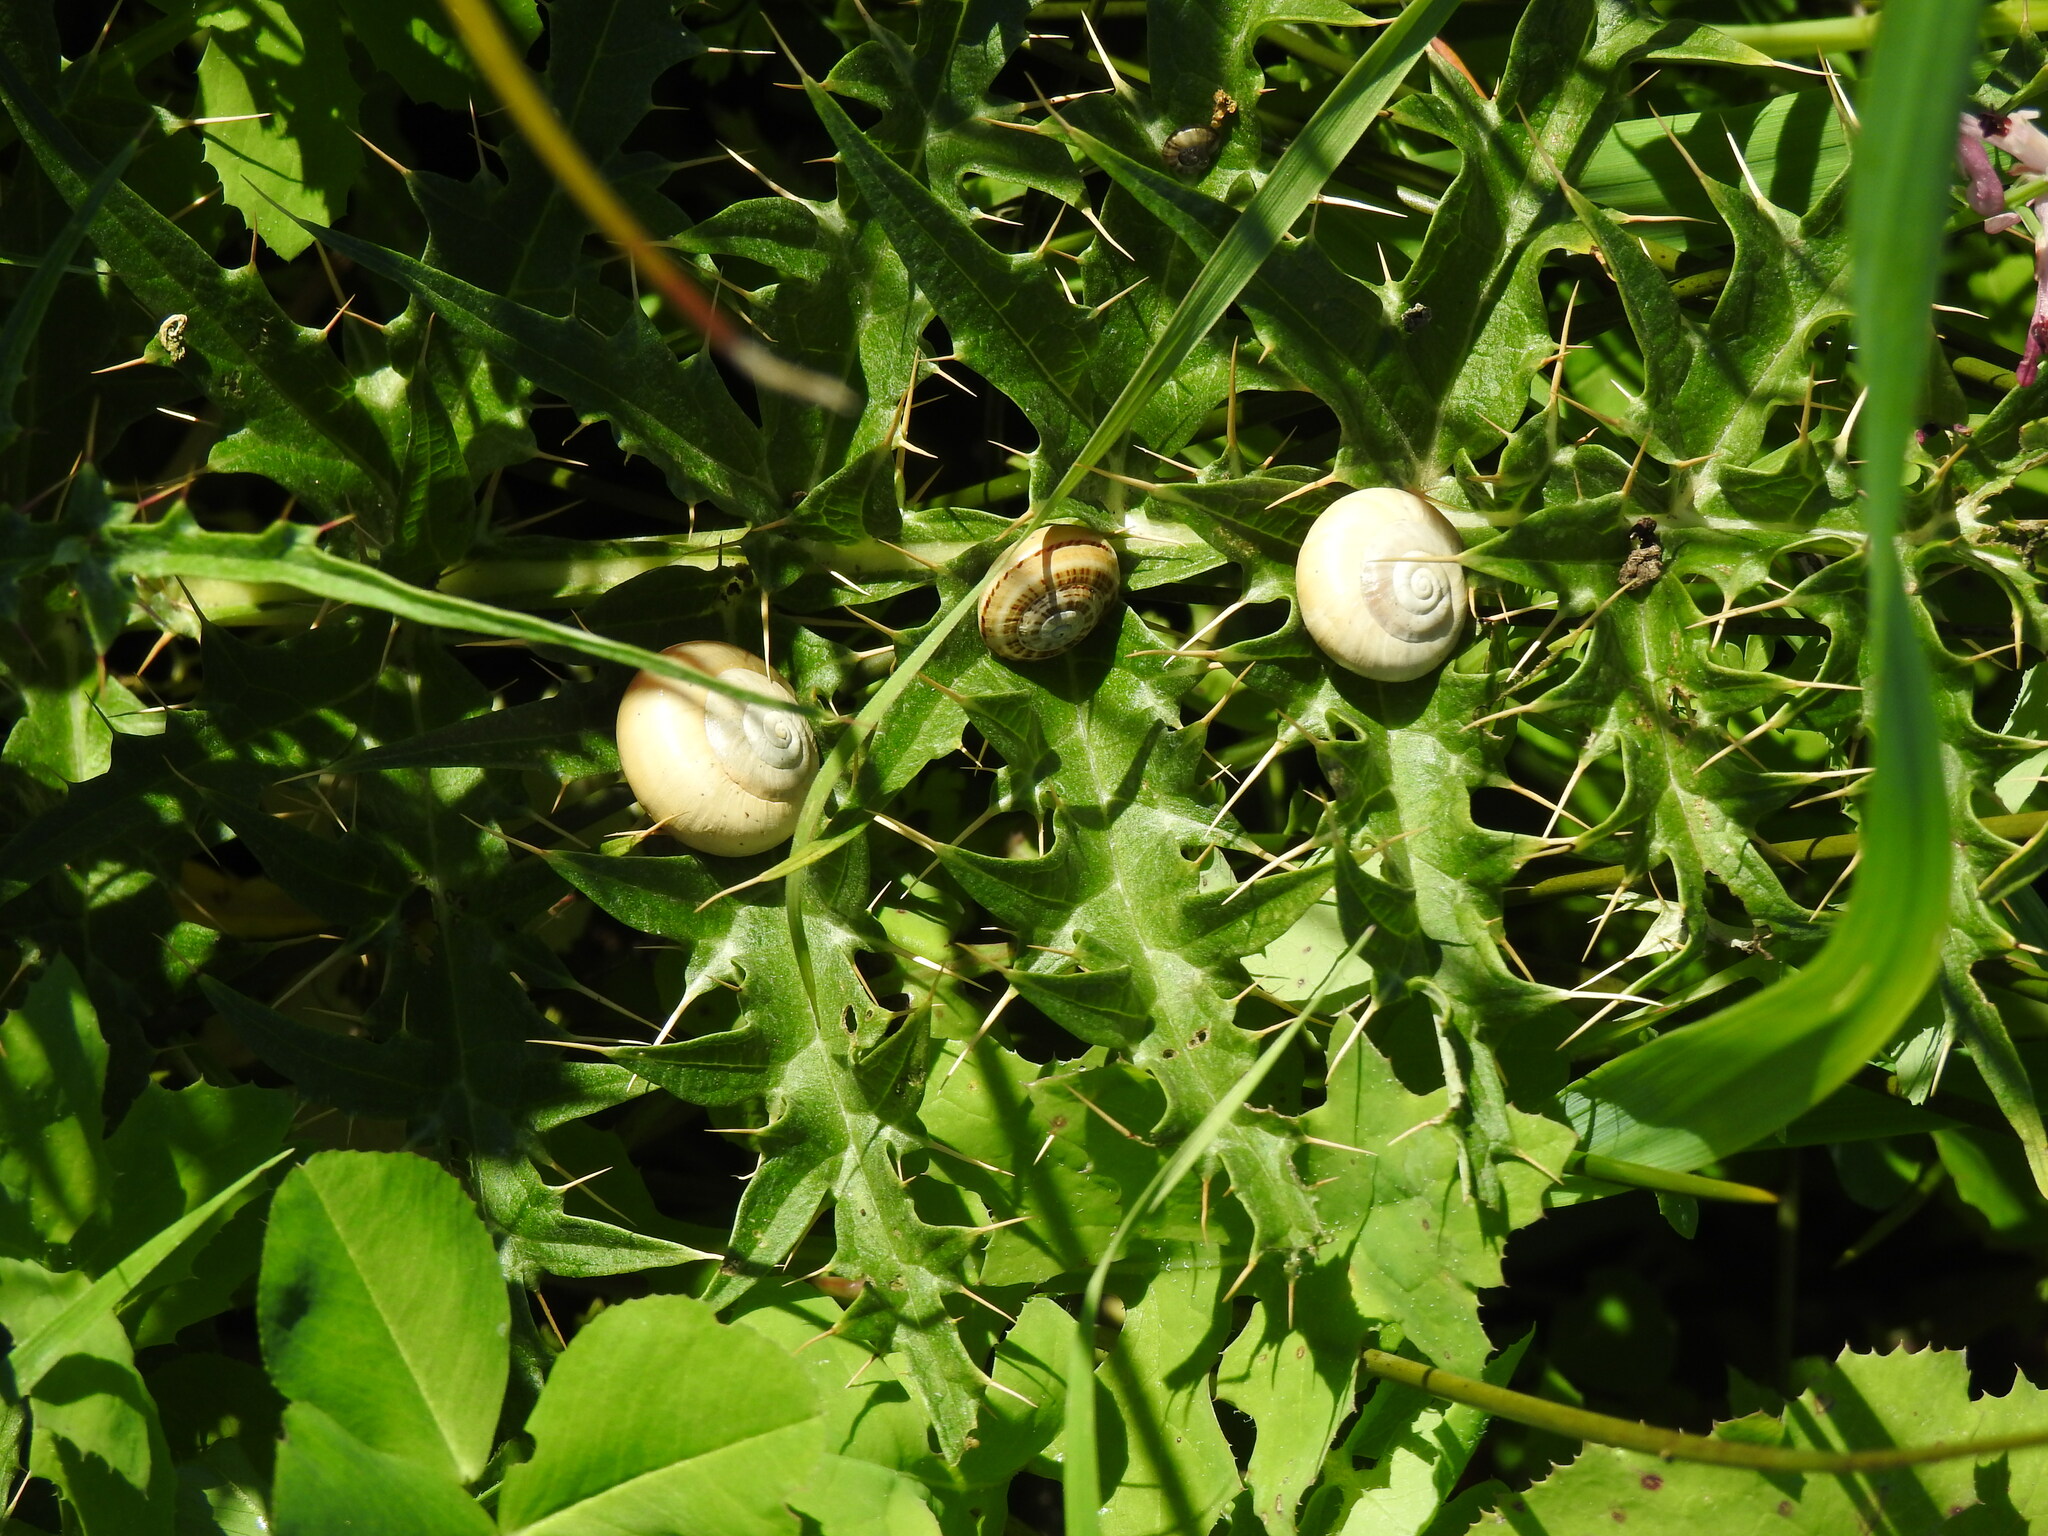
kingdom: Animalia
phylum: Mollusca
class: Gastropoda
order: Stylommatophora
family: Helicidae
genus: Theba
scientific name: Theba pisana
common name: White snail
